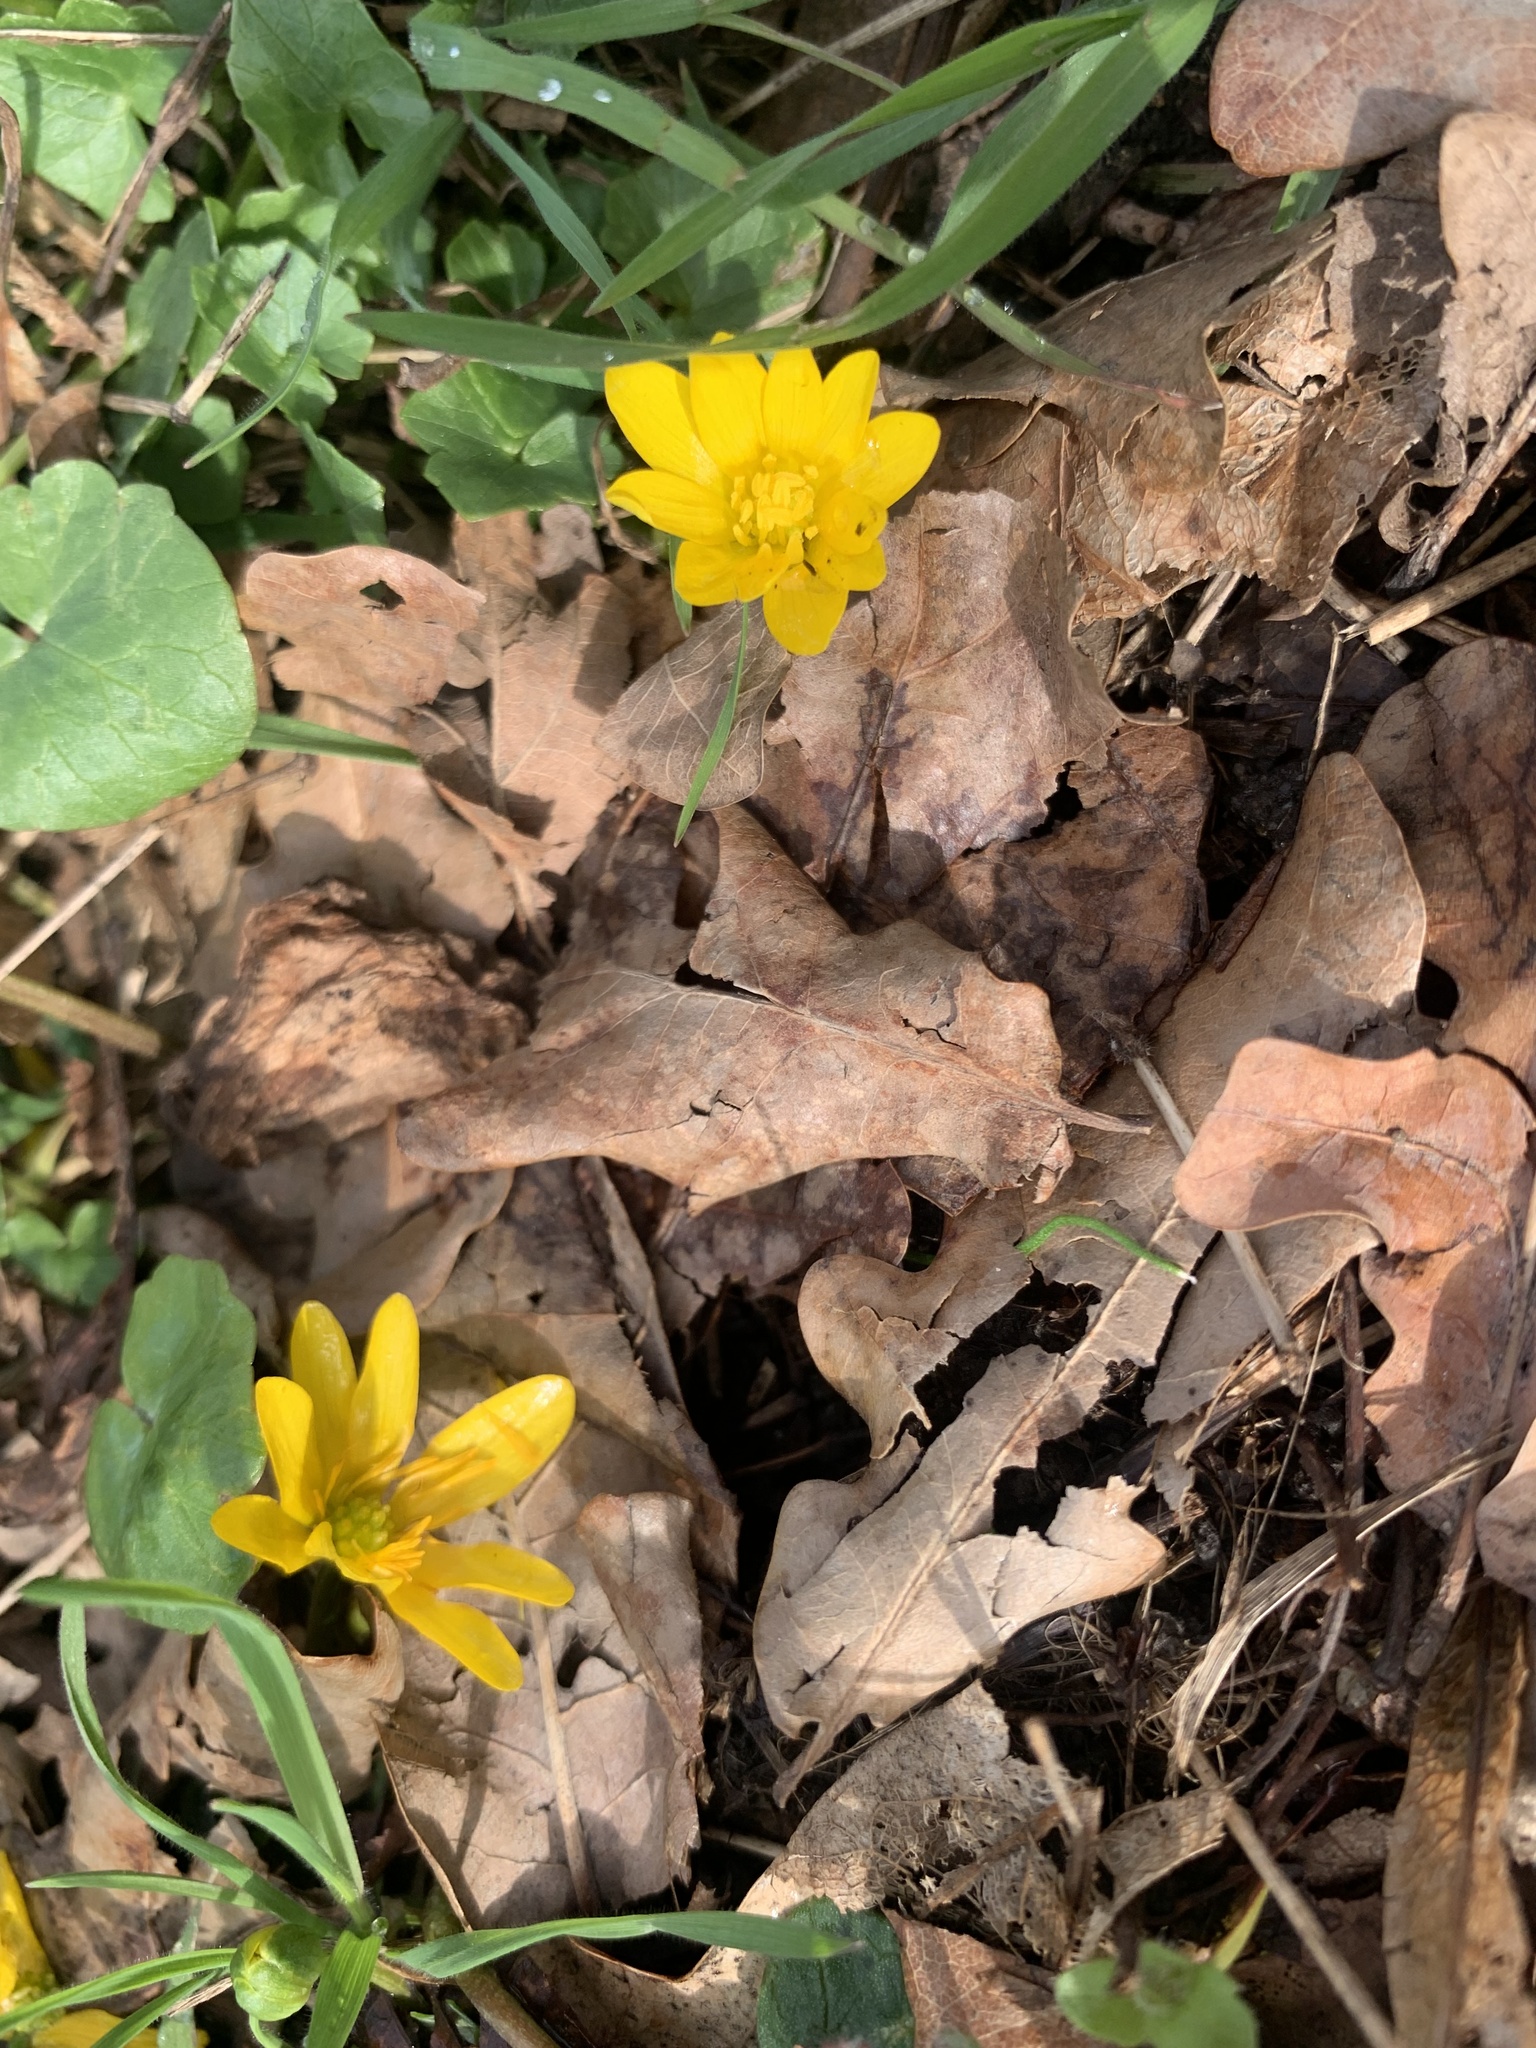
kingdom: Plantae
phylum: Tracheophyta
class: Magnoliopsida
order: Ranunculales
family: Ranunculaceae
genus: Ficaria
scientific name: Ficaria verna
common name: Lesser celandine
